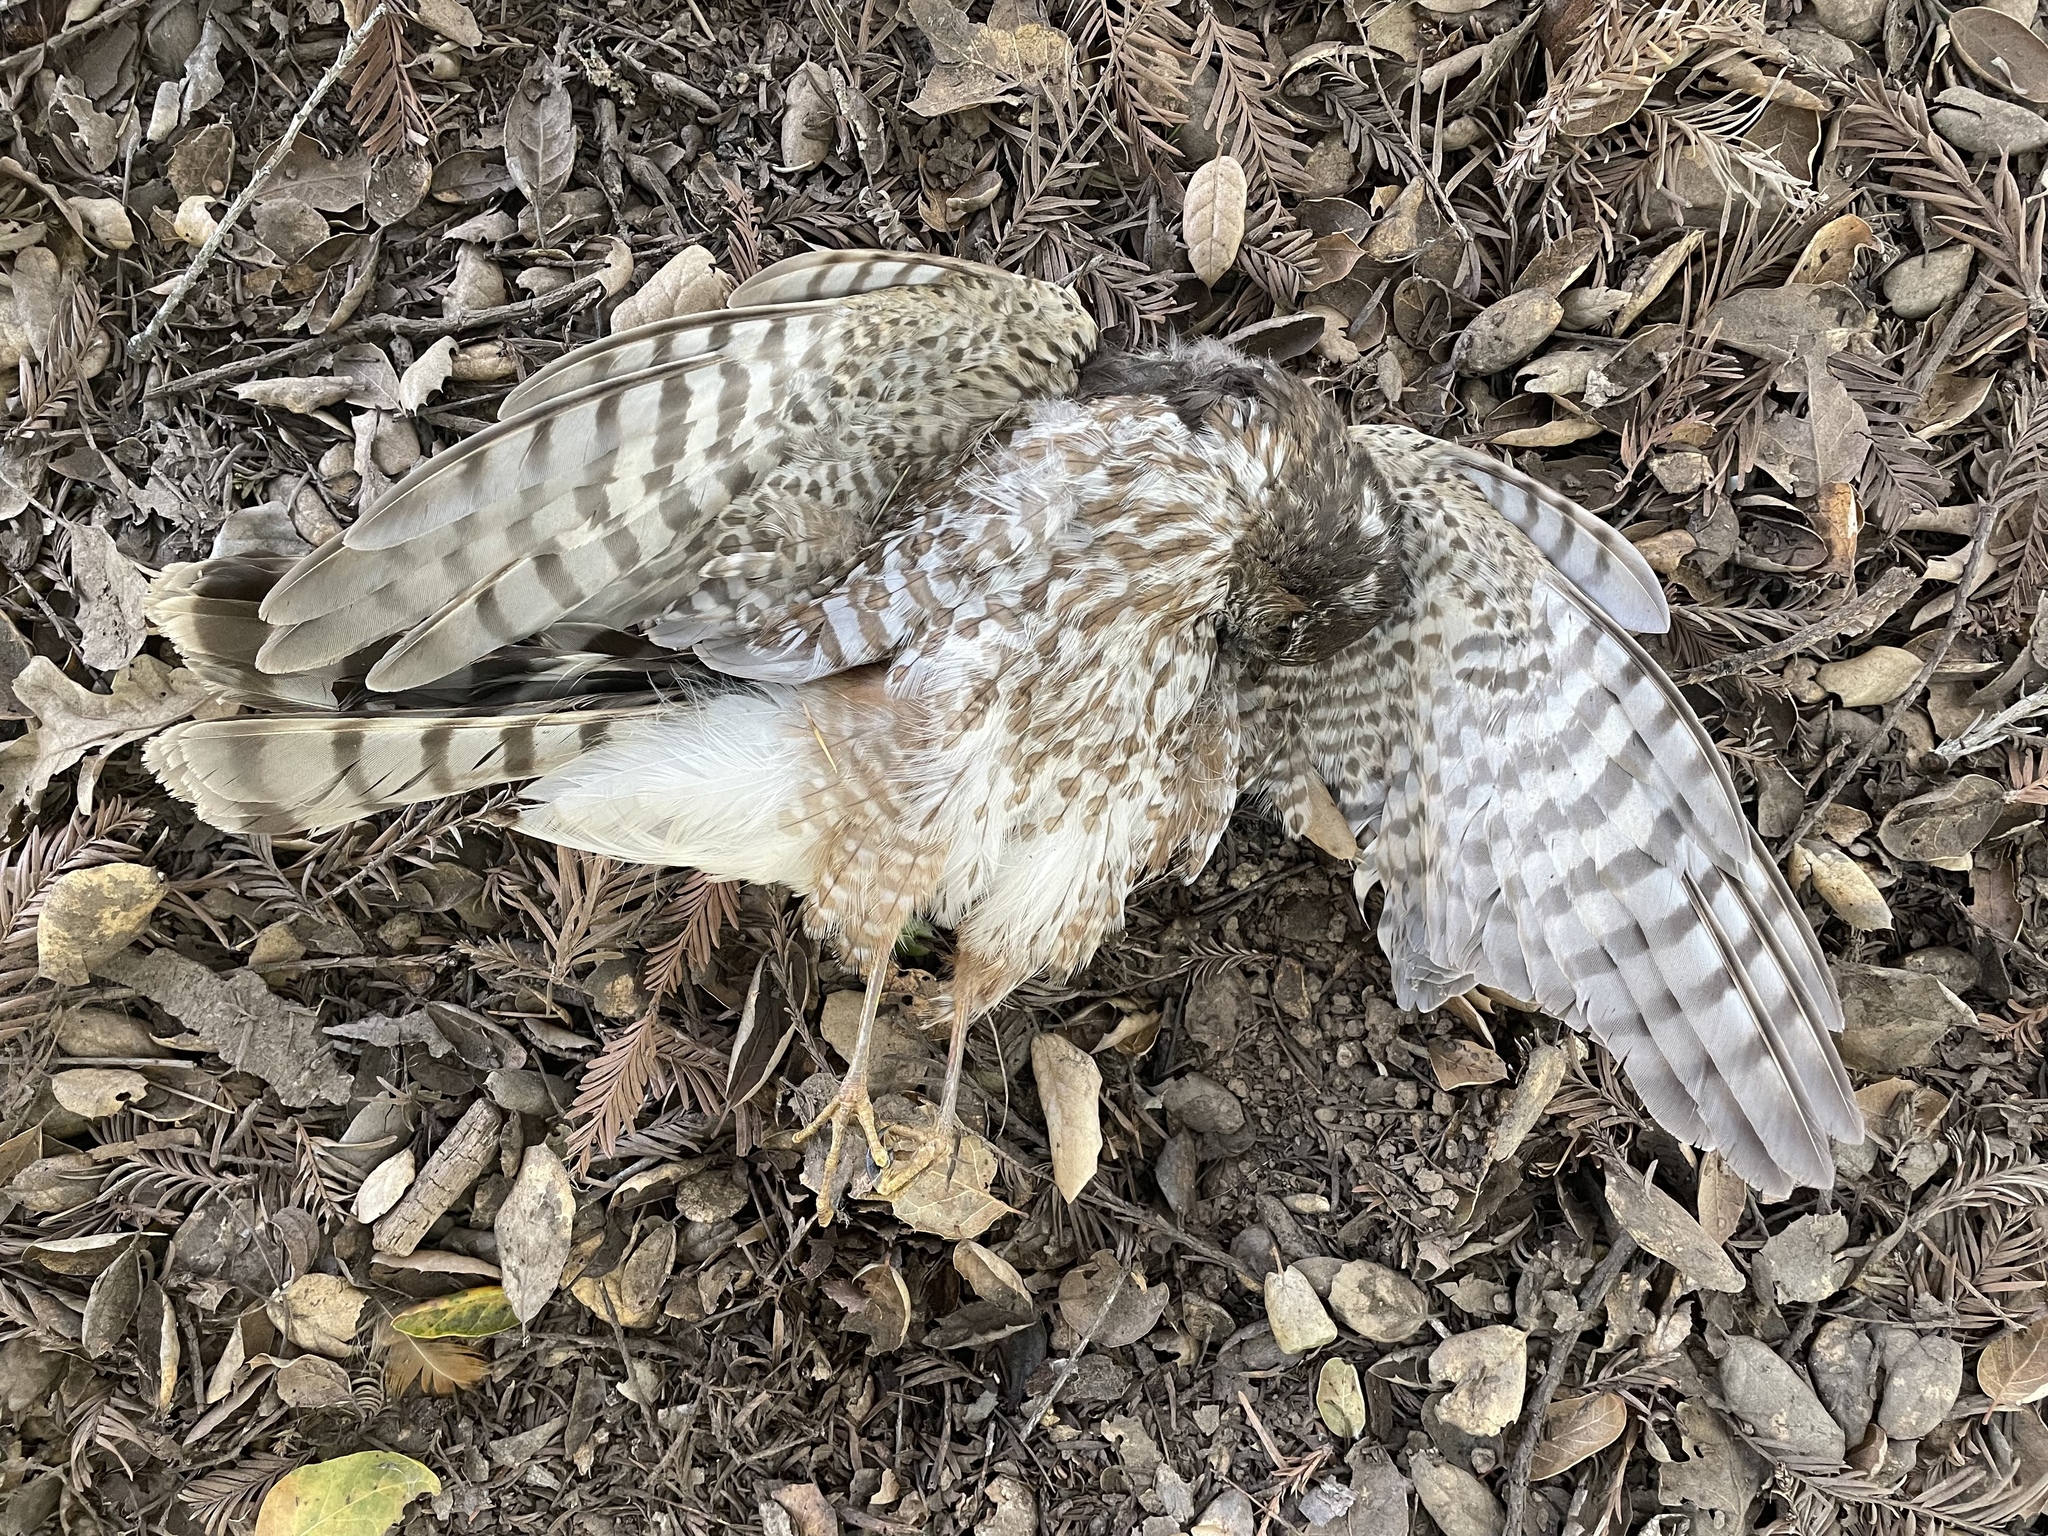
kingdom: Animalia
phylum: Chordata
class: Aves
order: Accipitriformes
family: Accipitridae
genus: Accipiter
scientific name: Accipiter striatus
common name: Sharp-shinned hawk
